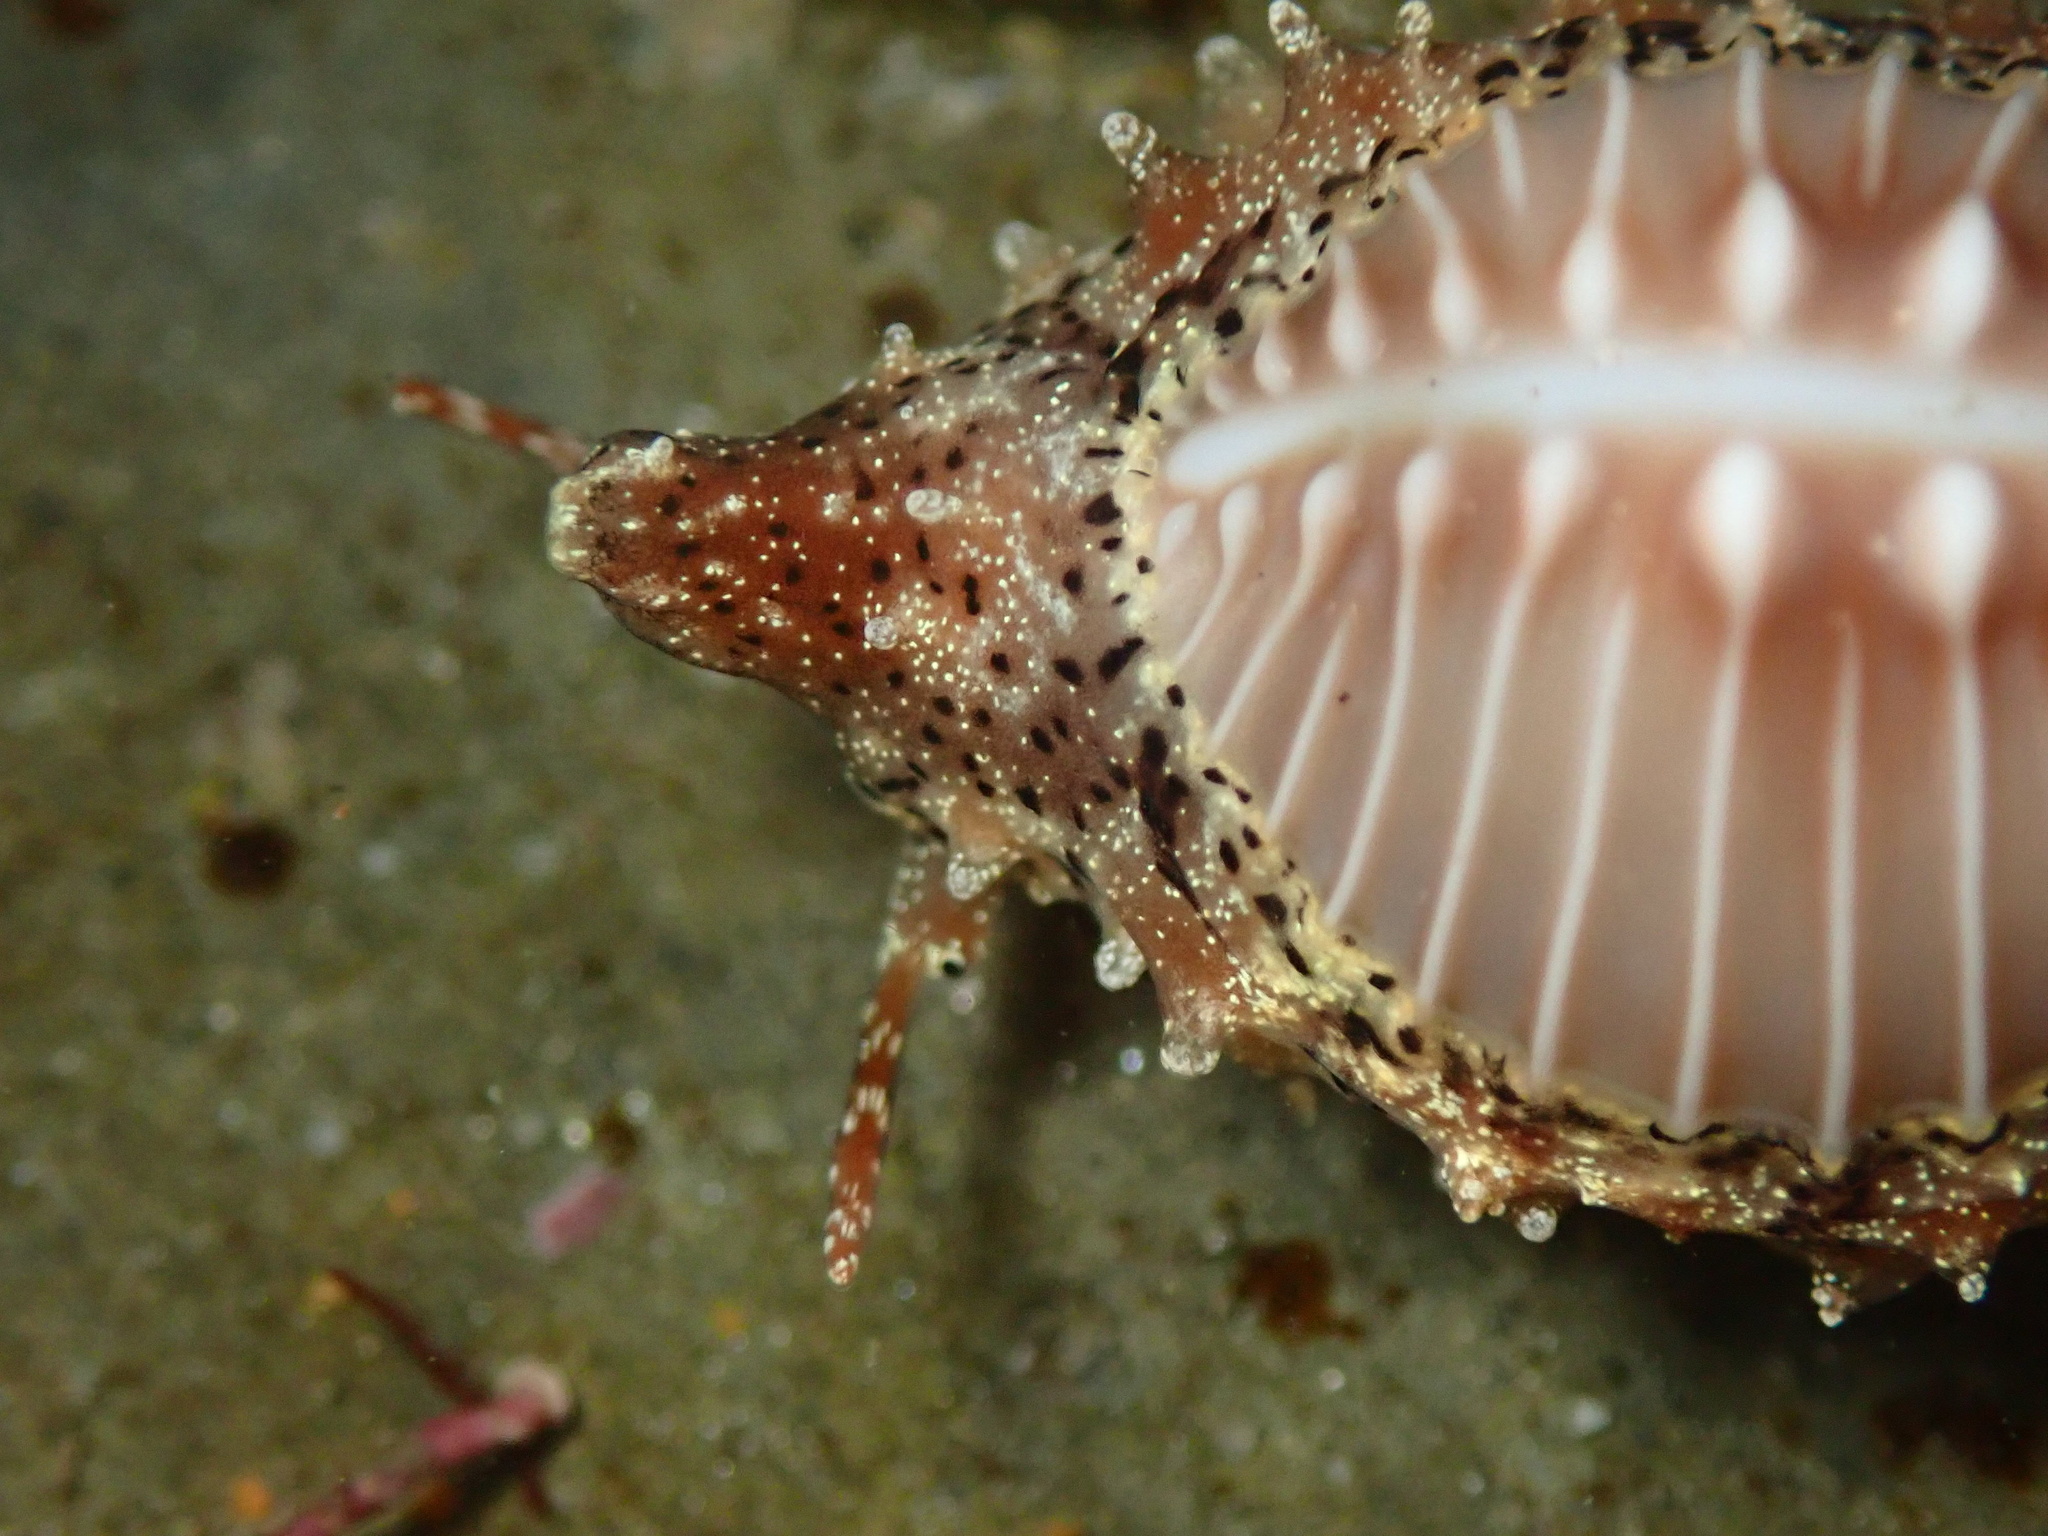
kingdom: Animalia
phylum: Mollusca
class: Gastropoda
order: Littorinimorpha
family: Triviidae
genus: Pusula
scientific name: Pusula solandri
